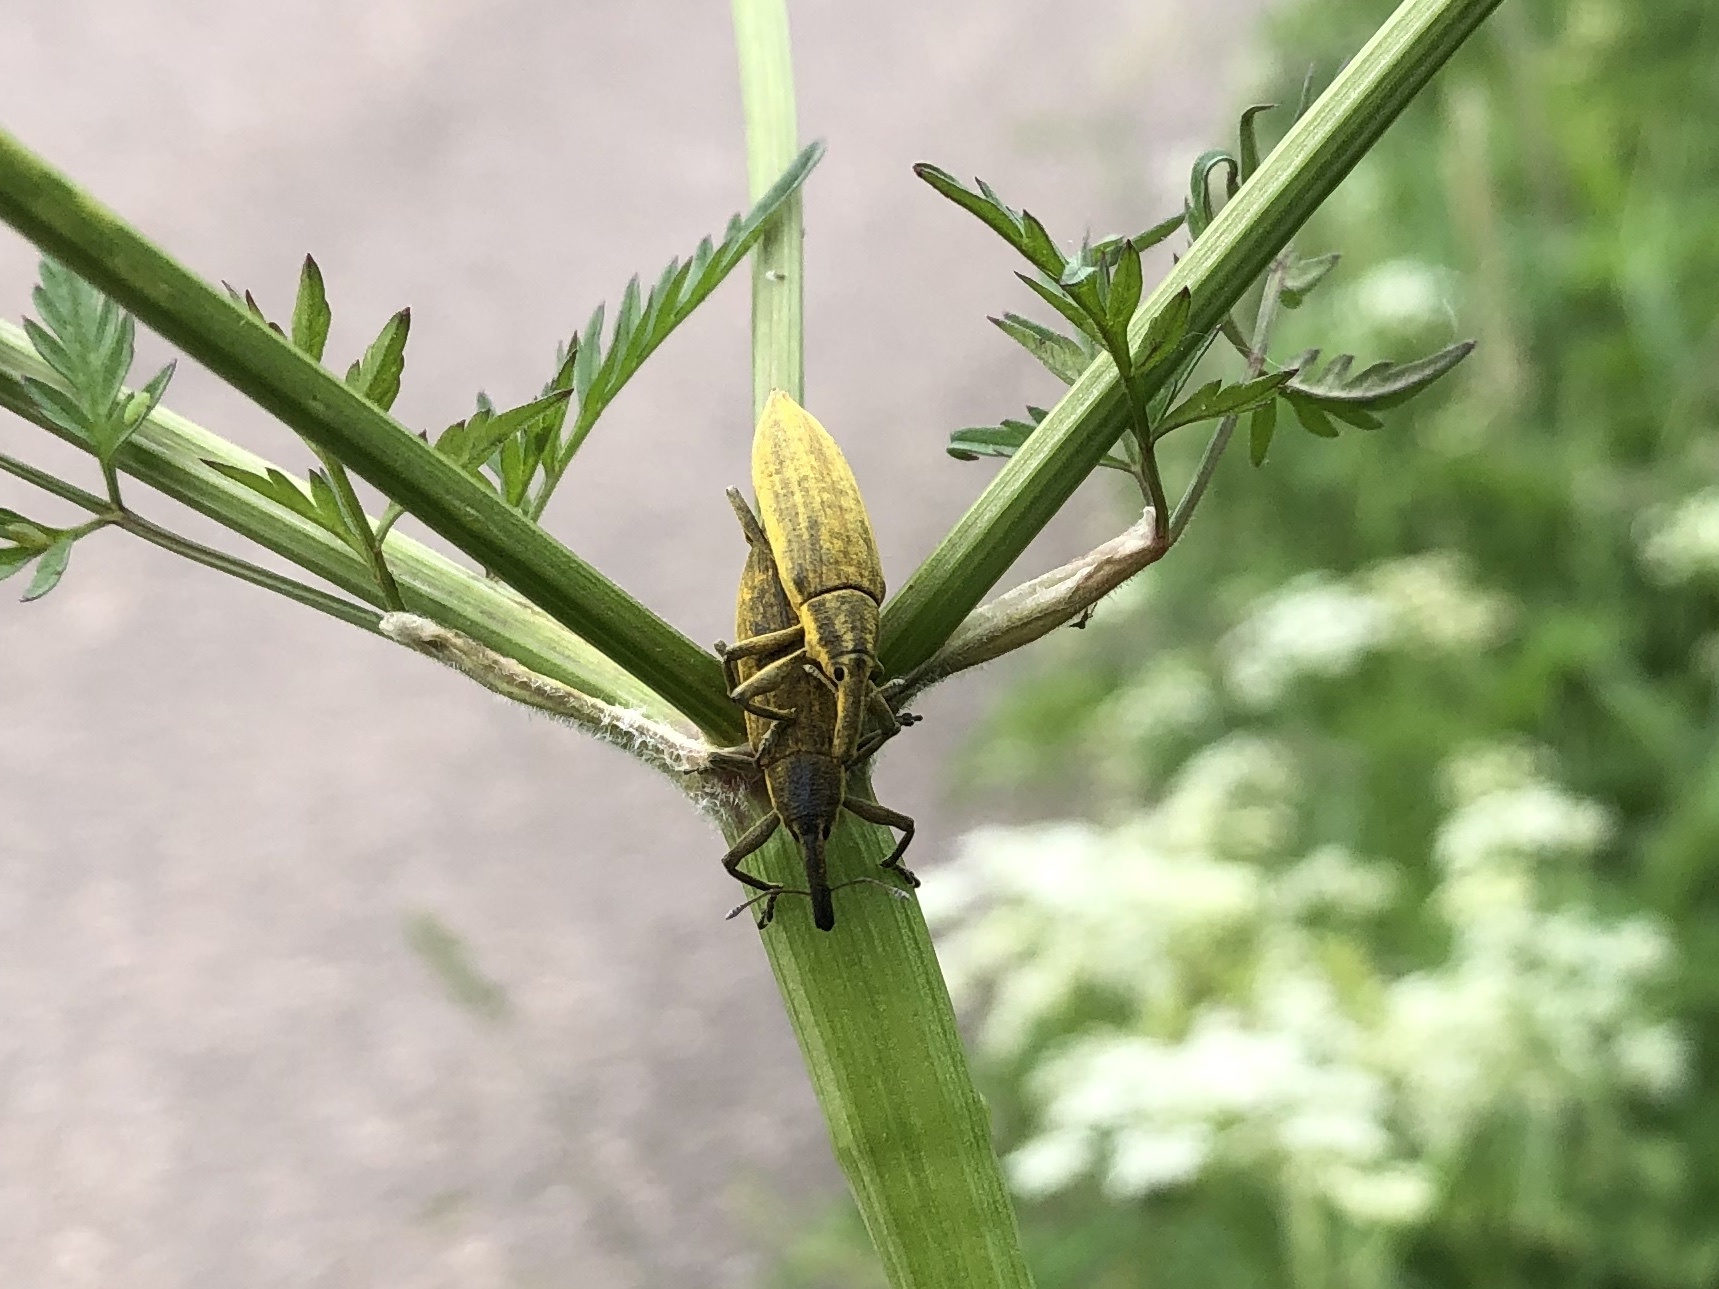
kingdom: Animalia
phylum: Arthropoda
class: Insecta
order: Coleoptera
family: Curculionidae
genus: Lixus
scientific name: Lixus iridis
